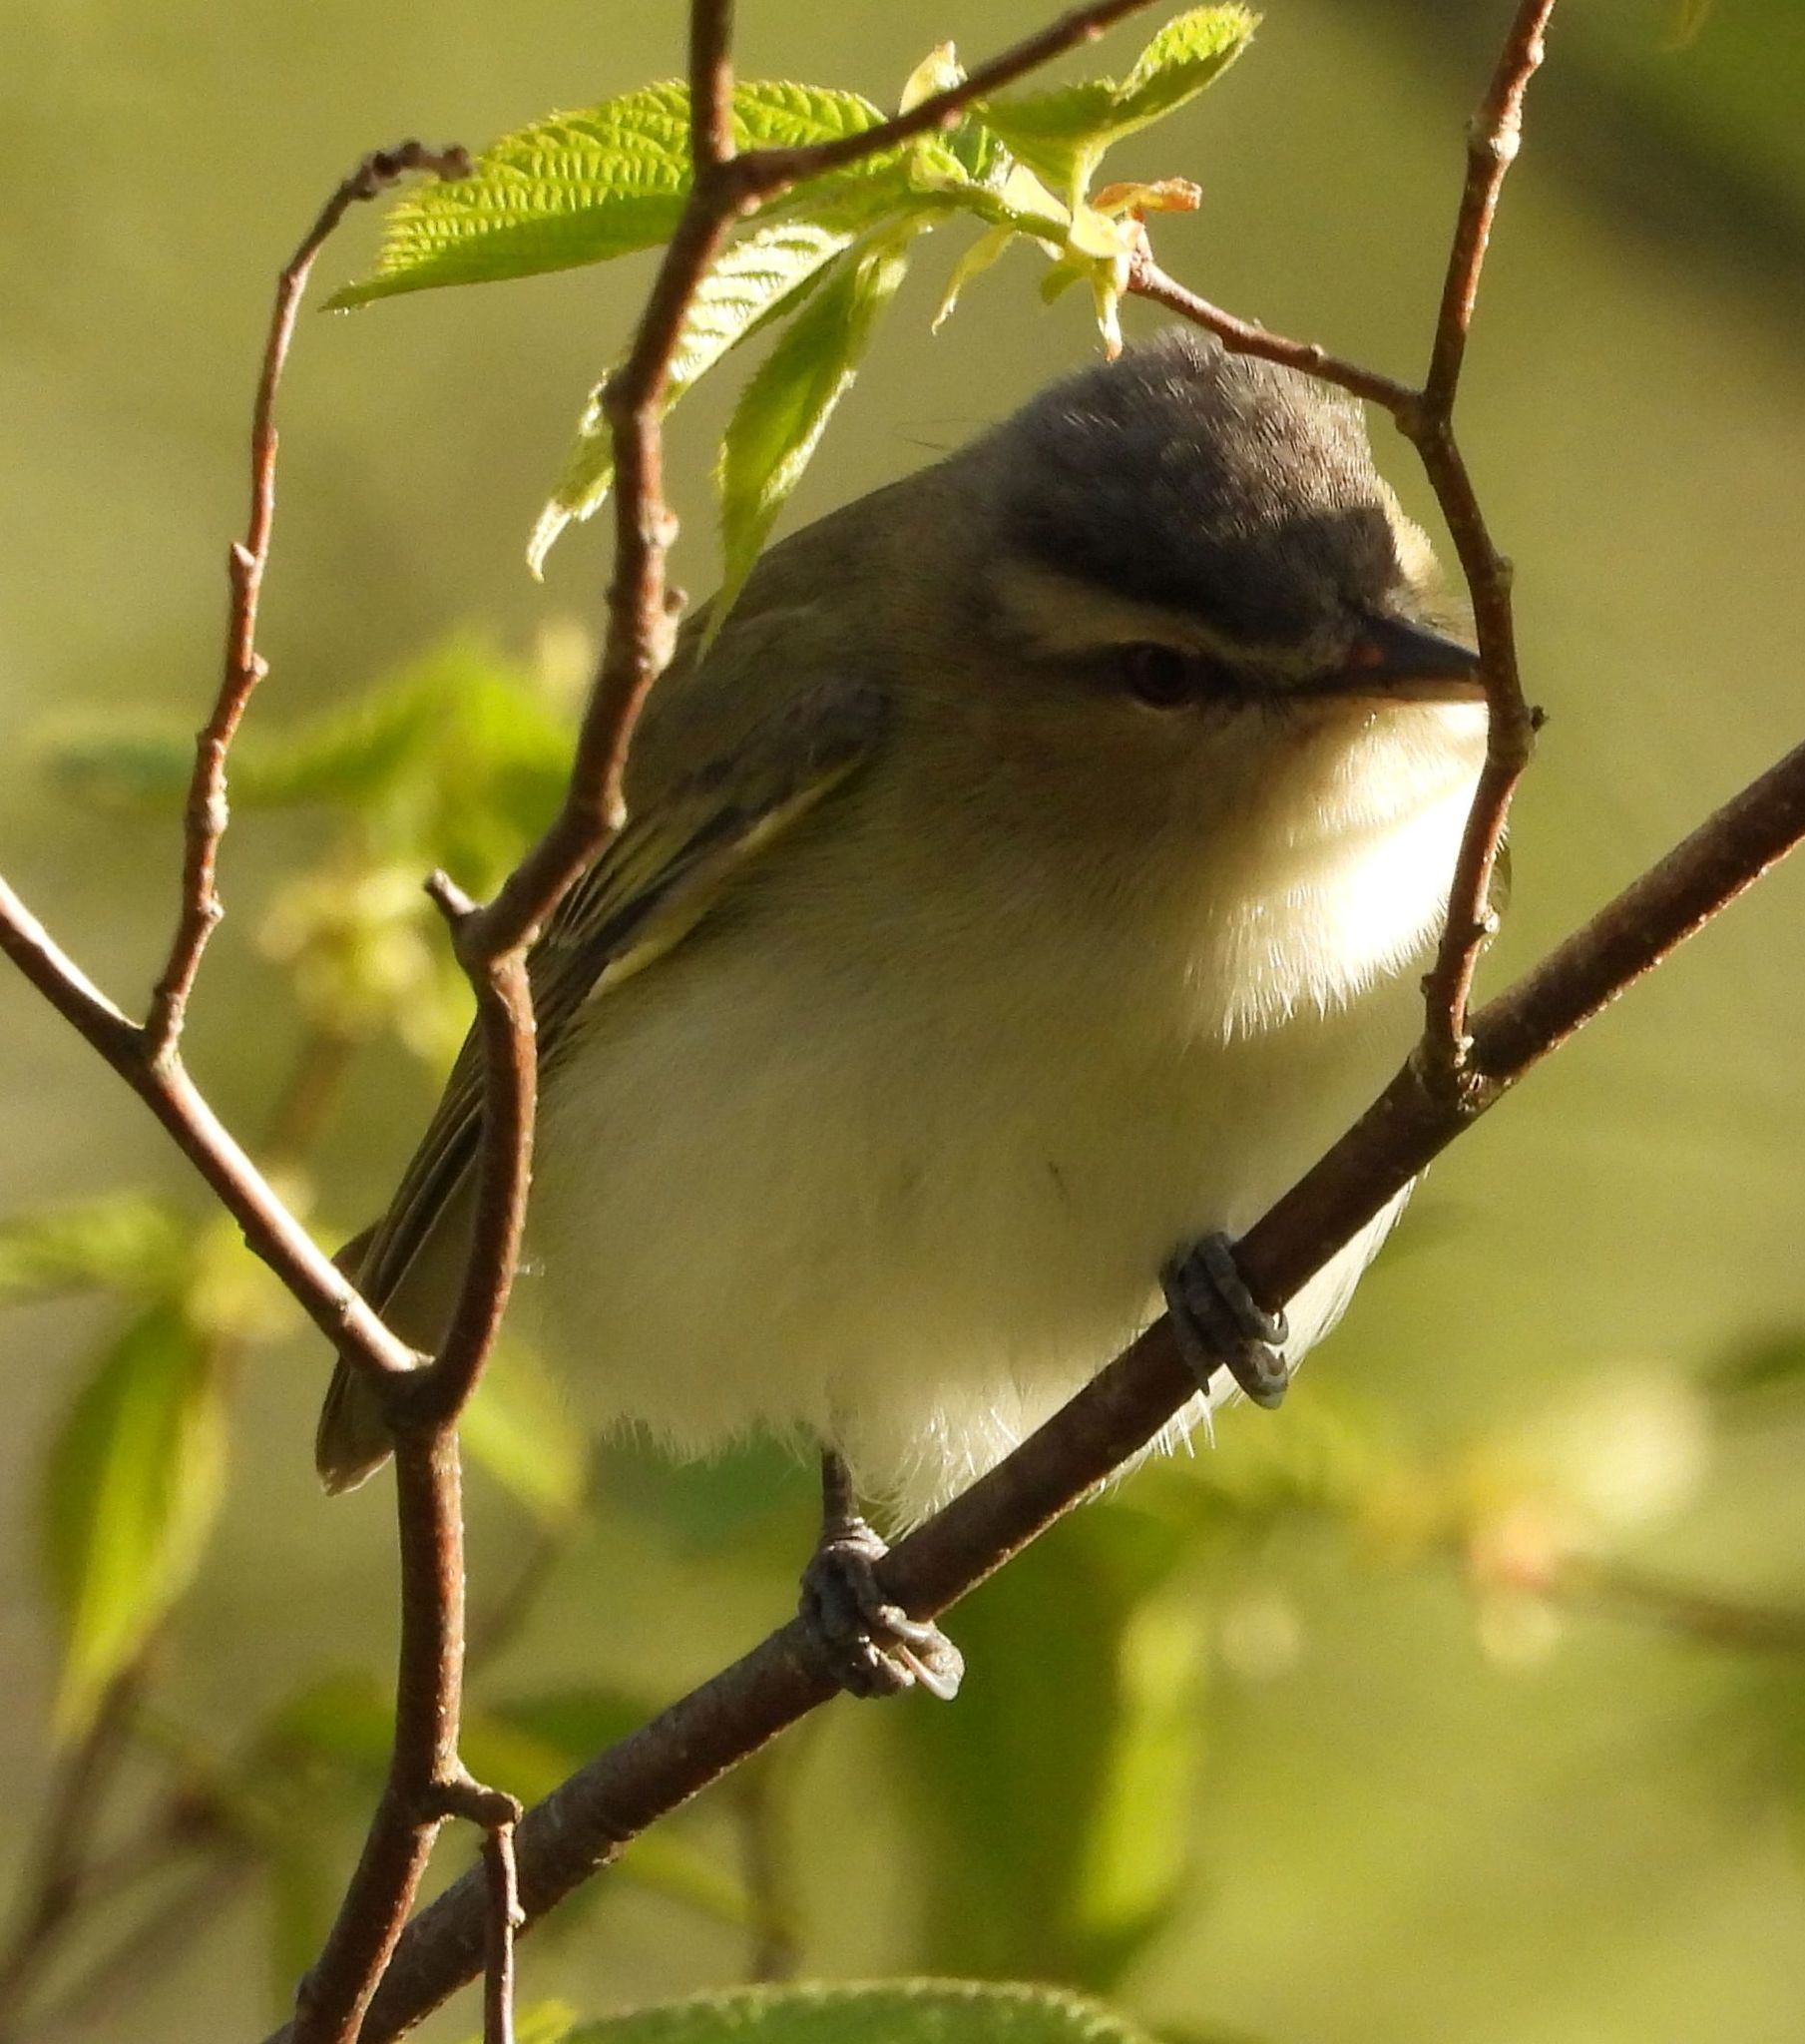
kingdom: Animalia
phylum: Chordata
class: Aves
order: Passeriformes
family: Vireonidae
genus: Vireo
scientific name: Vireo olivaceus
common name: Red-eyed vireo
